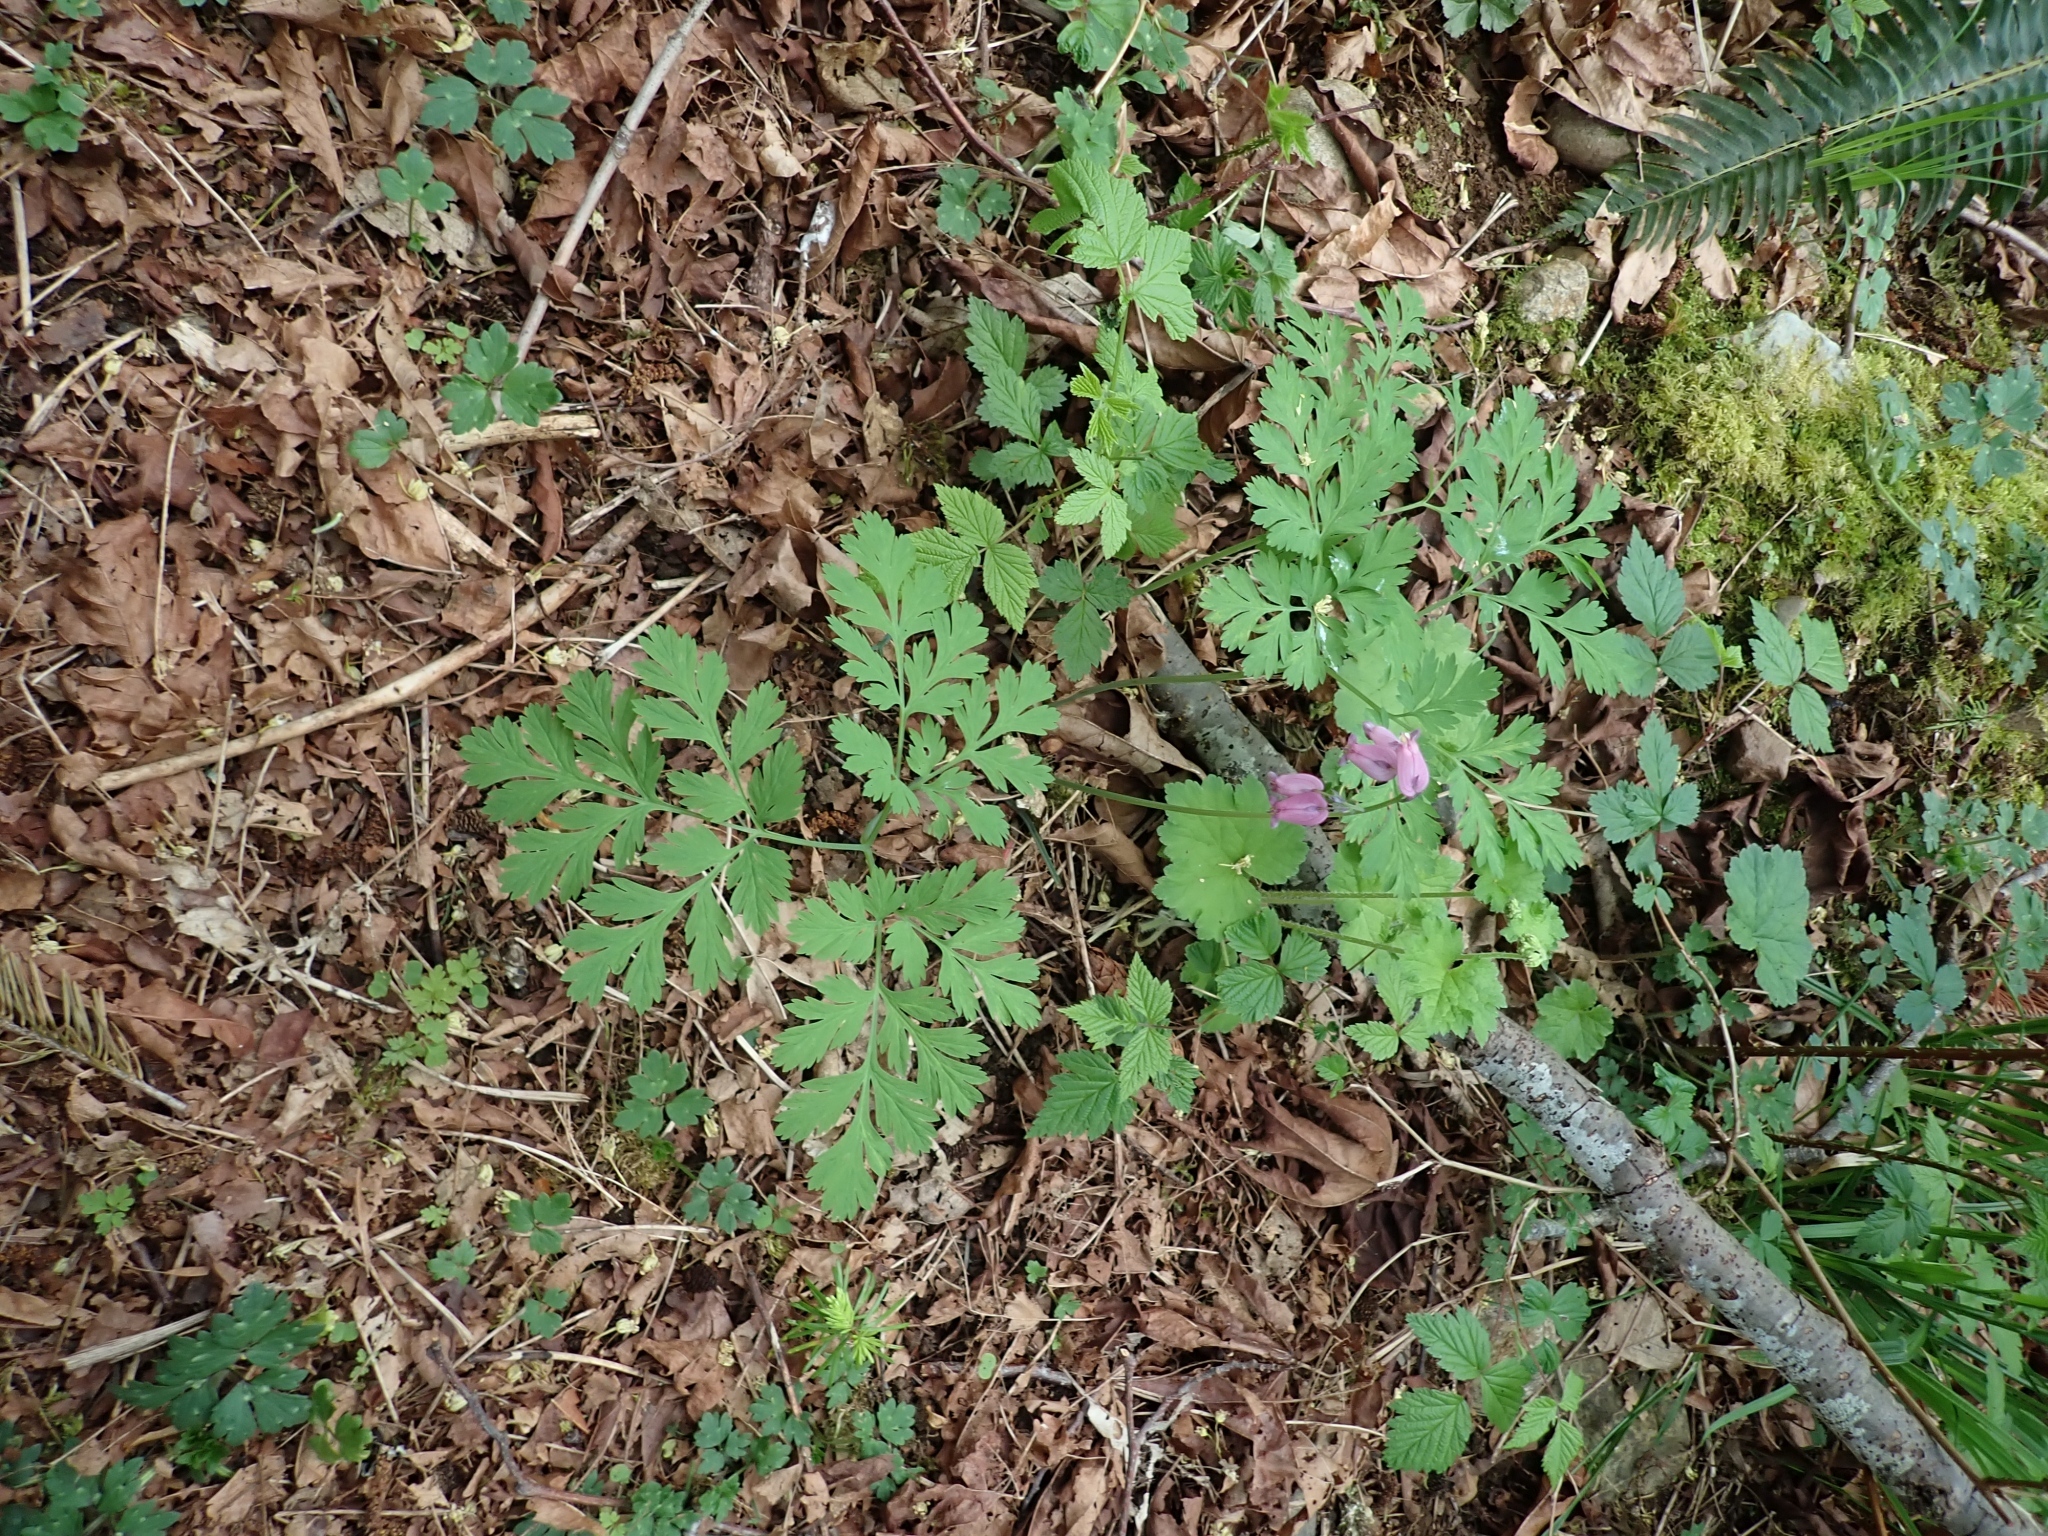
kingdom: Plantae
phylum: Tracheophyta
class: Magnoliopsida
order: Ranunculales
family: Papaveraceae
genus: Dicentra
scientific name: Dicentra formosa
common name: Bleeding-heart
